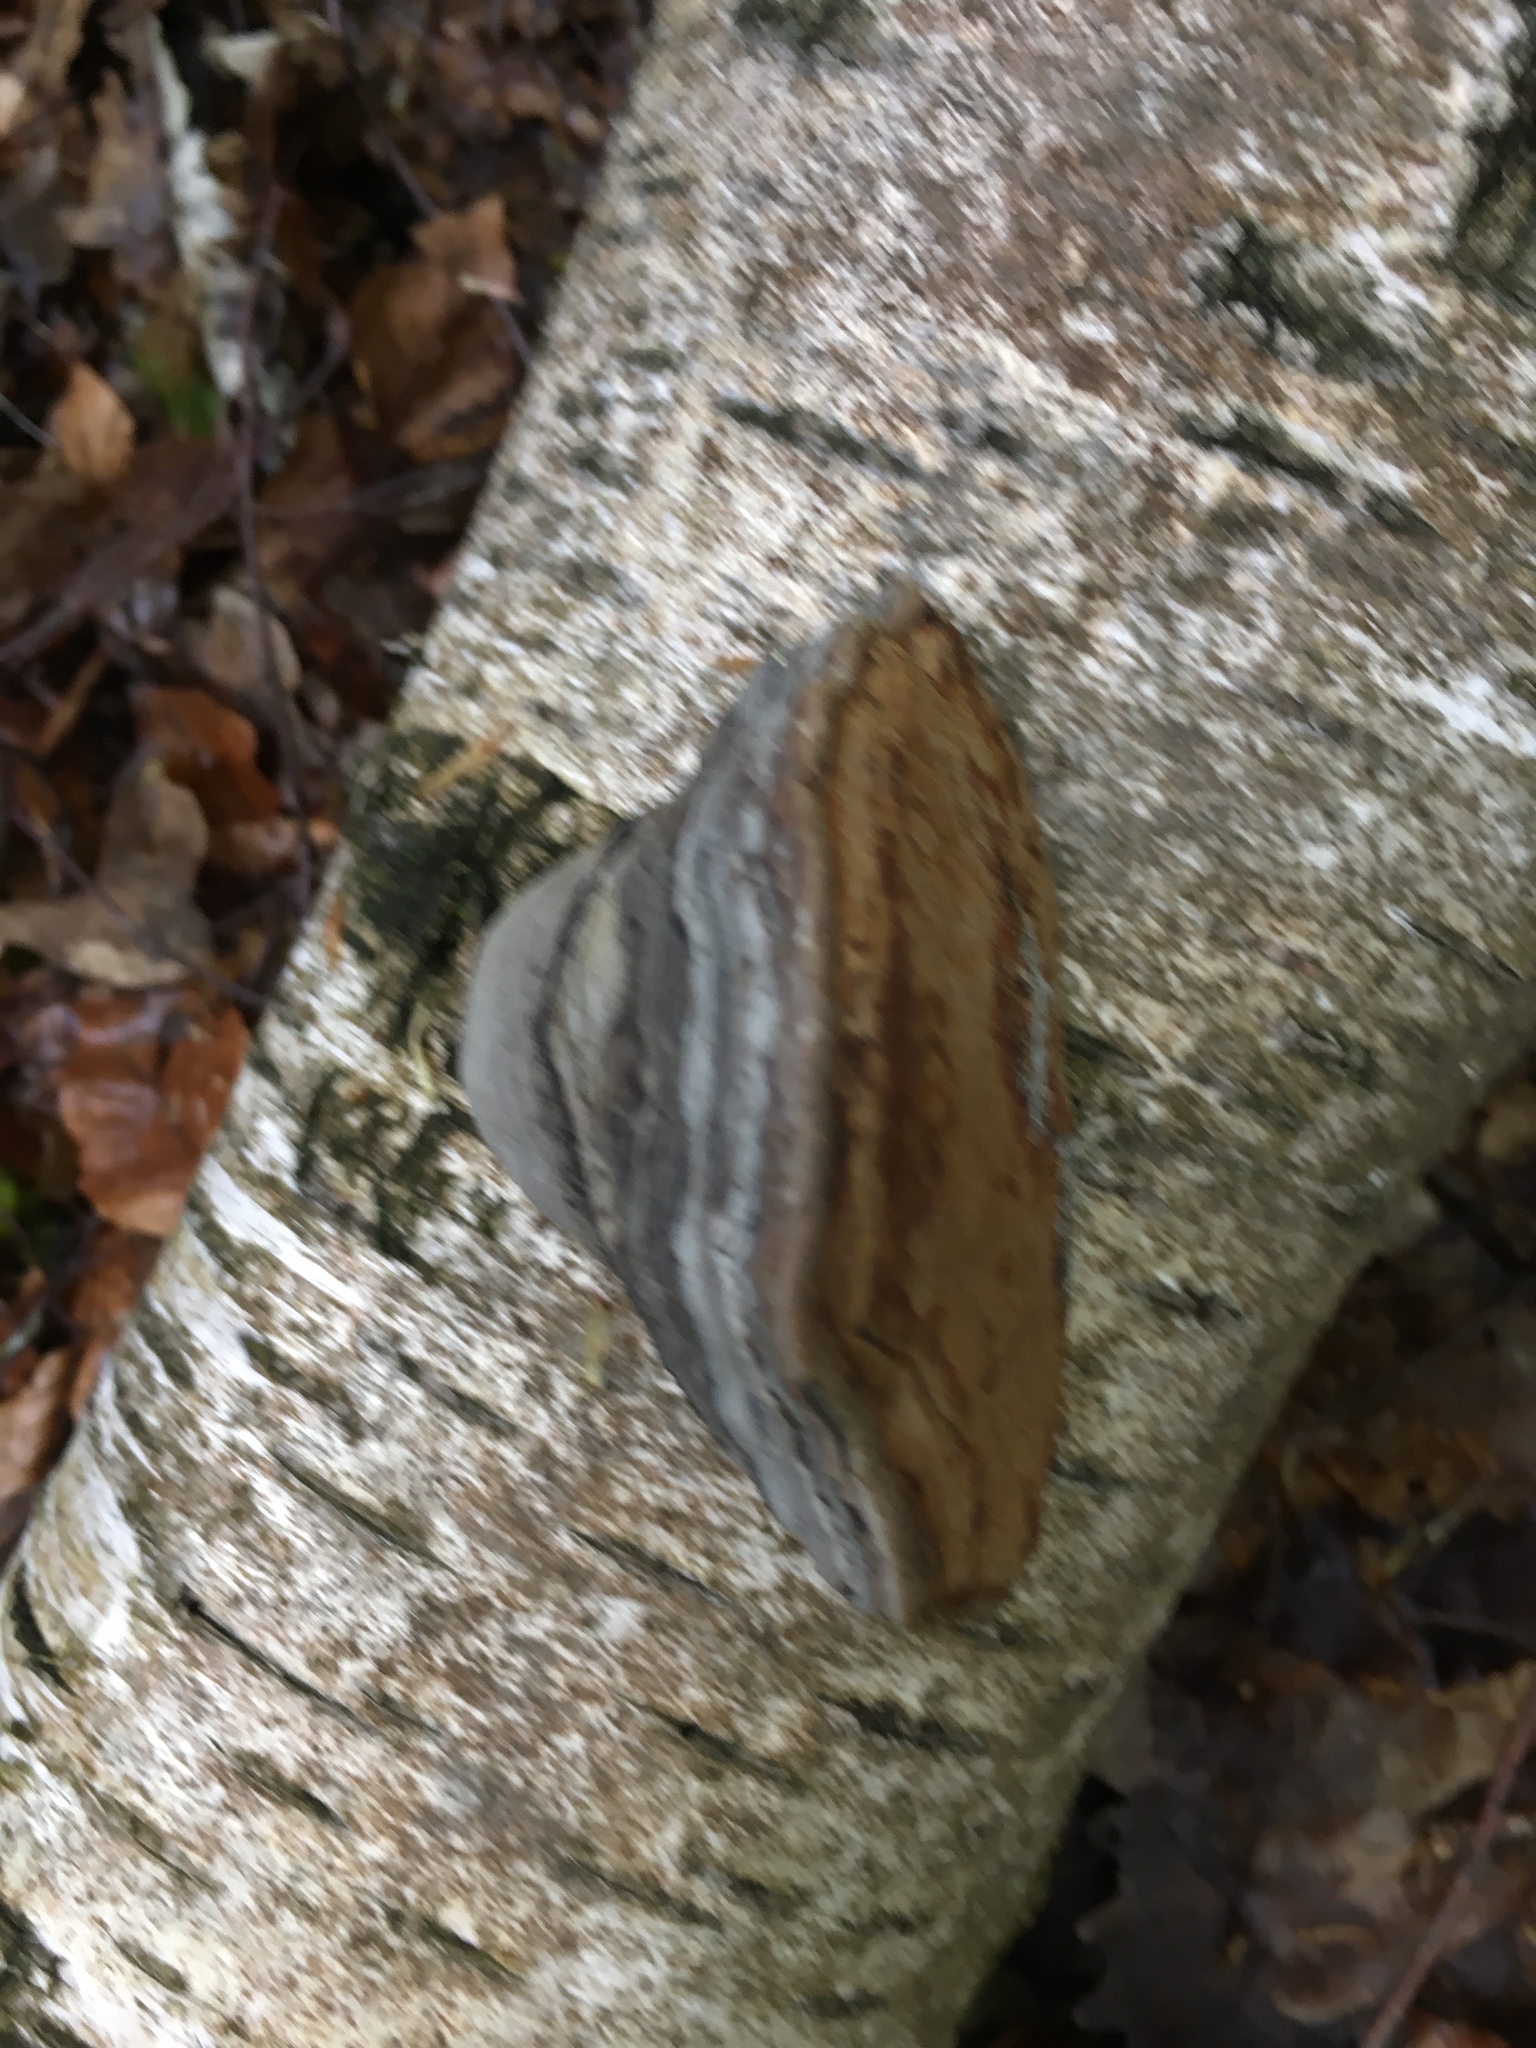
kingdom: Fungi
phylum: Basidiomycota
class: Agaricomycetes
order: Polyporales
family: Polyporaceae
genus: Fomes
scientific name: Fomes fomentarius
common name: Hoof fungus
